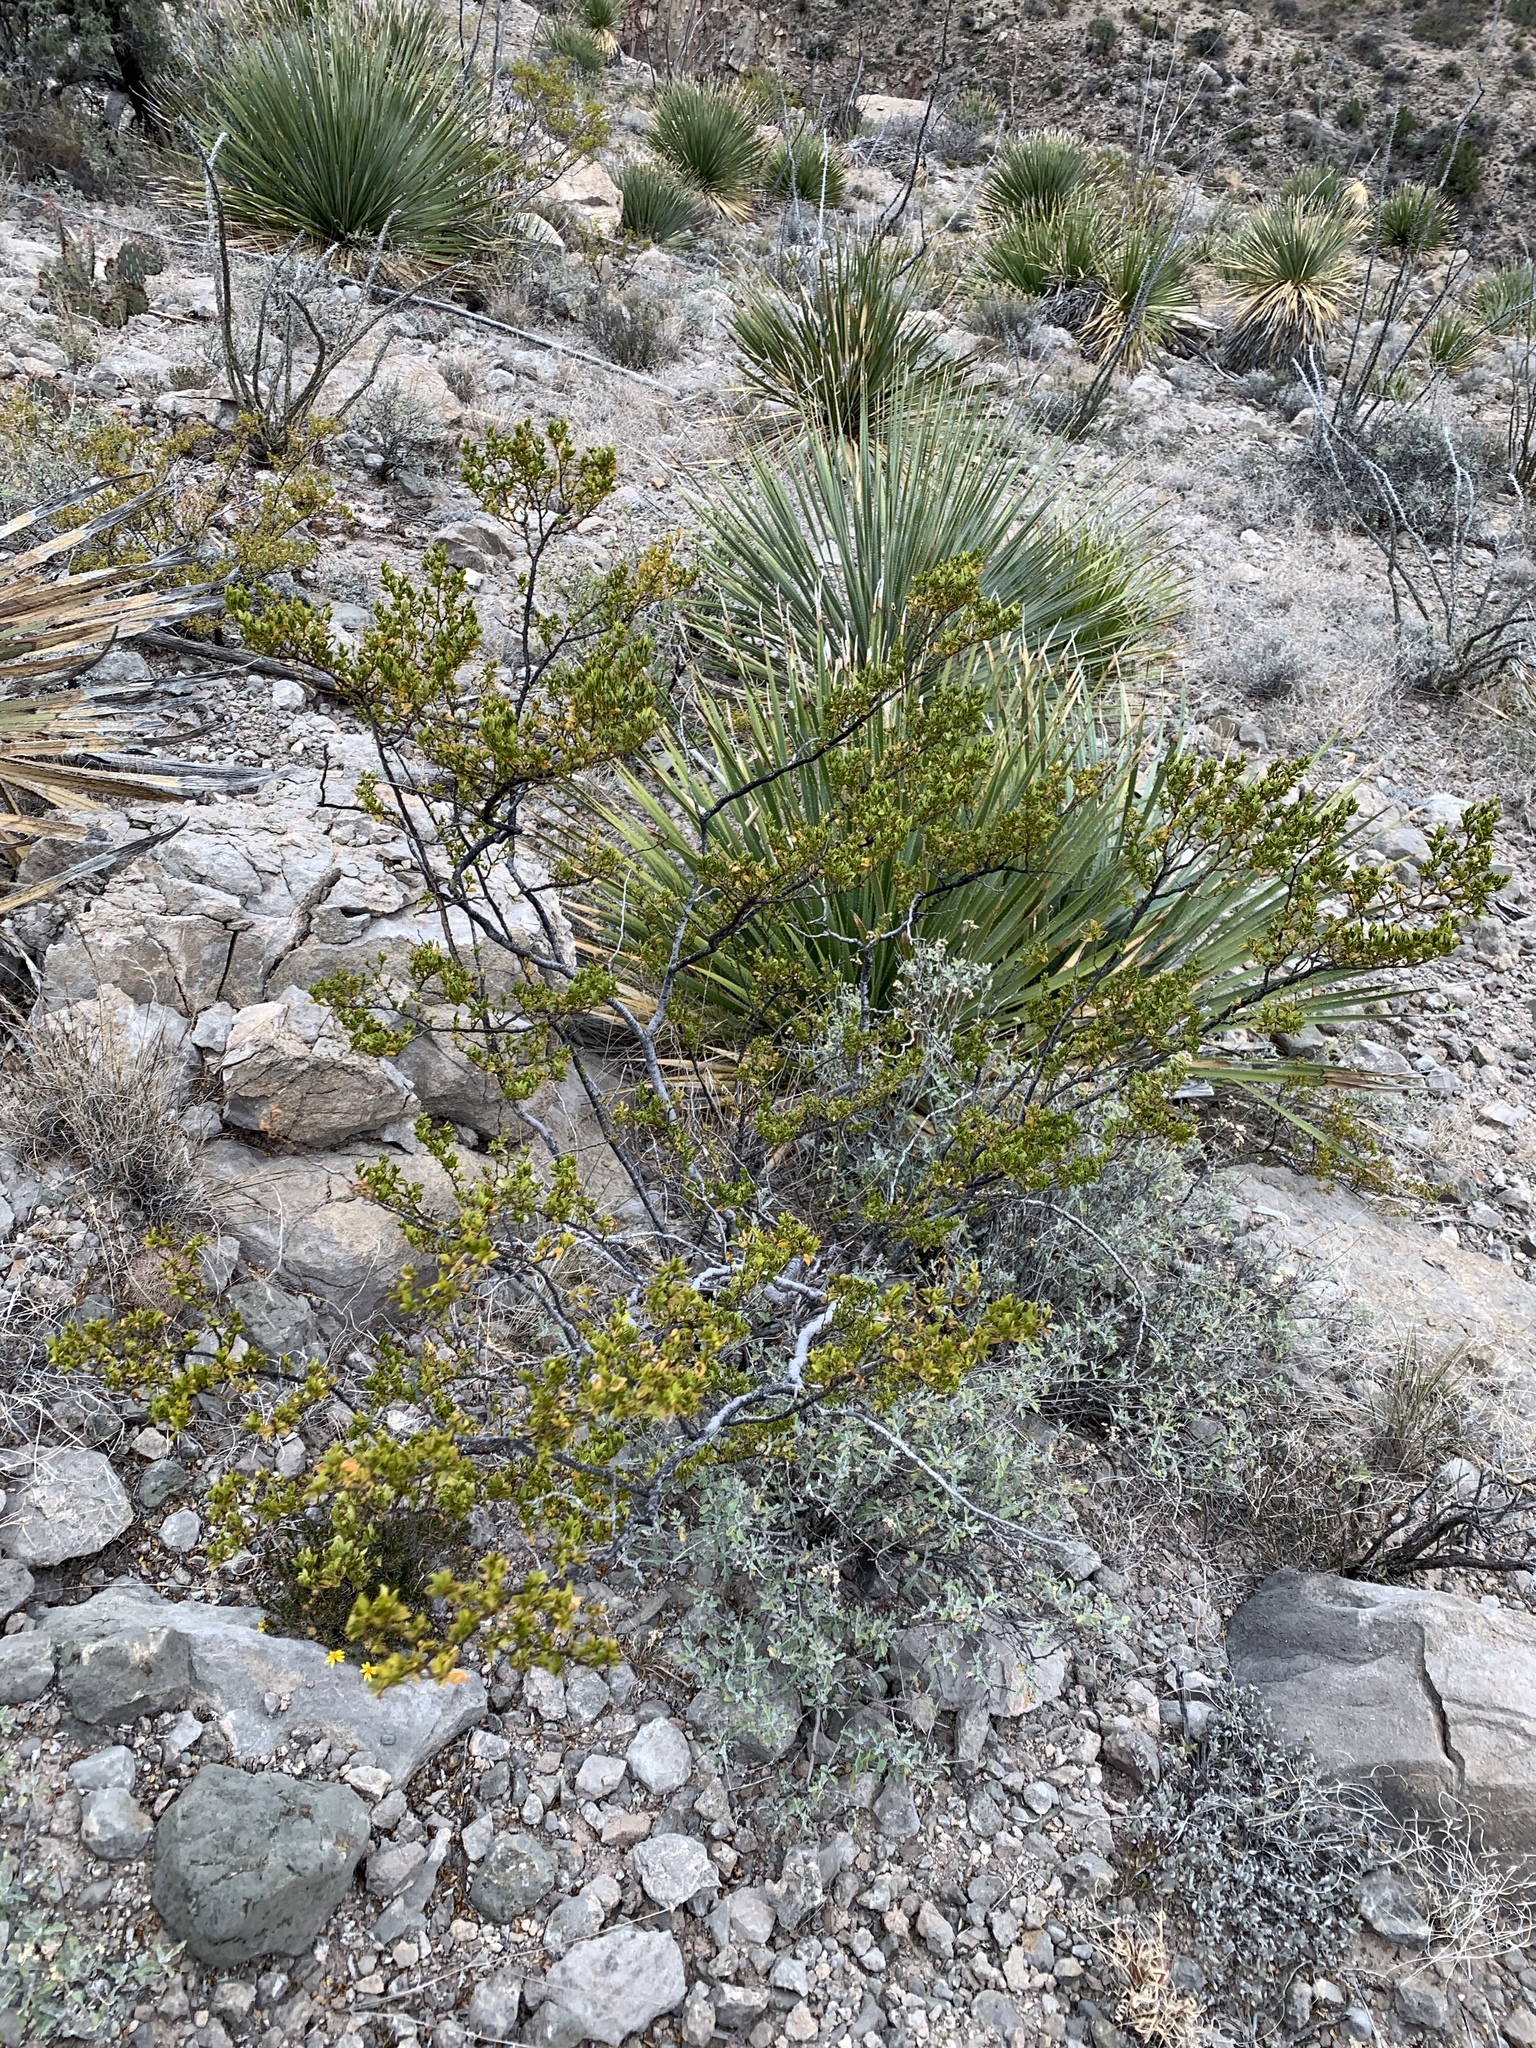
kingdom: Plantae
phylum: Tracheophyta
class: Magnoliopsida
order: Zygophyllales
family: Zygophyllaceae
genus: Larrea
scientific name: Larrea tridentata
